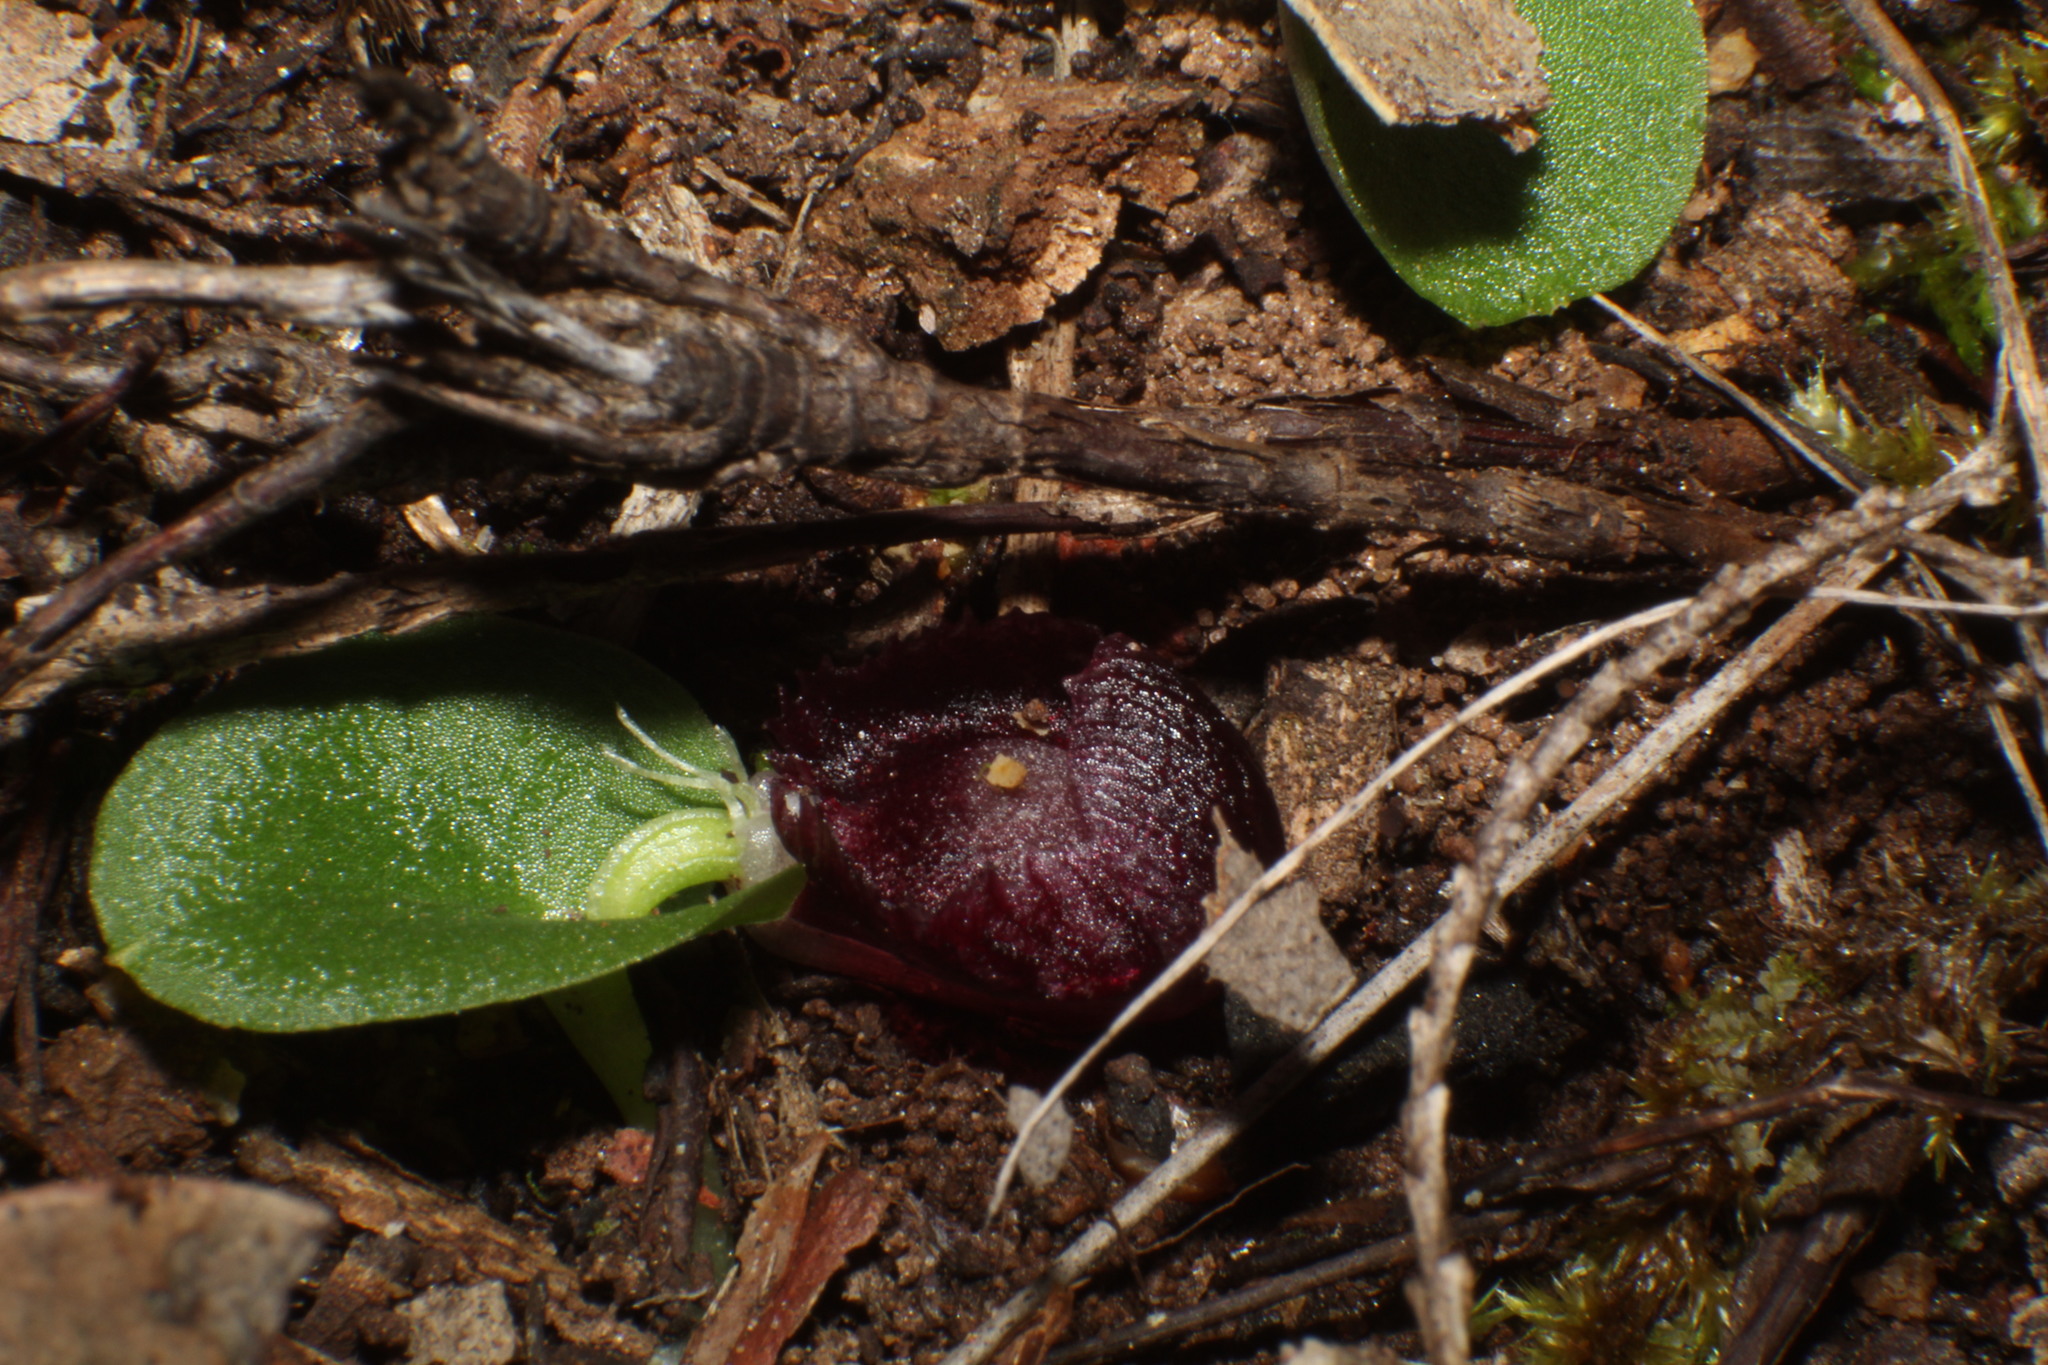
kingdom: Plantae
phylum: Tracheophyta
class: Liliopsida
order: Asparagales
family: Orchidaceae
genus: Corybas
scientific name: Corybas recurvus
